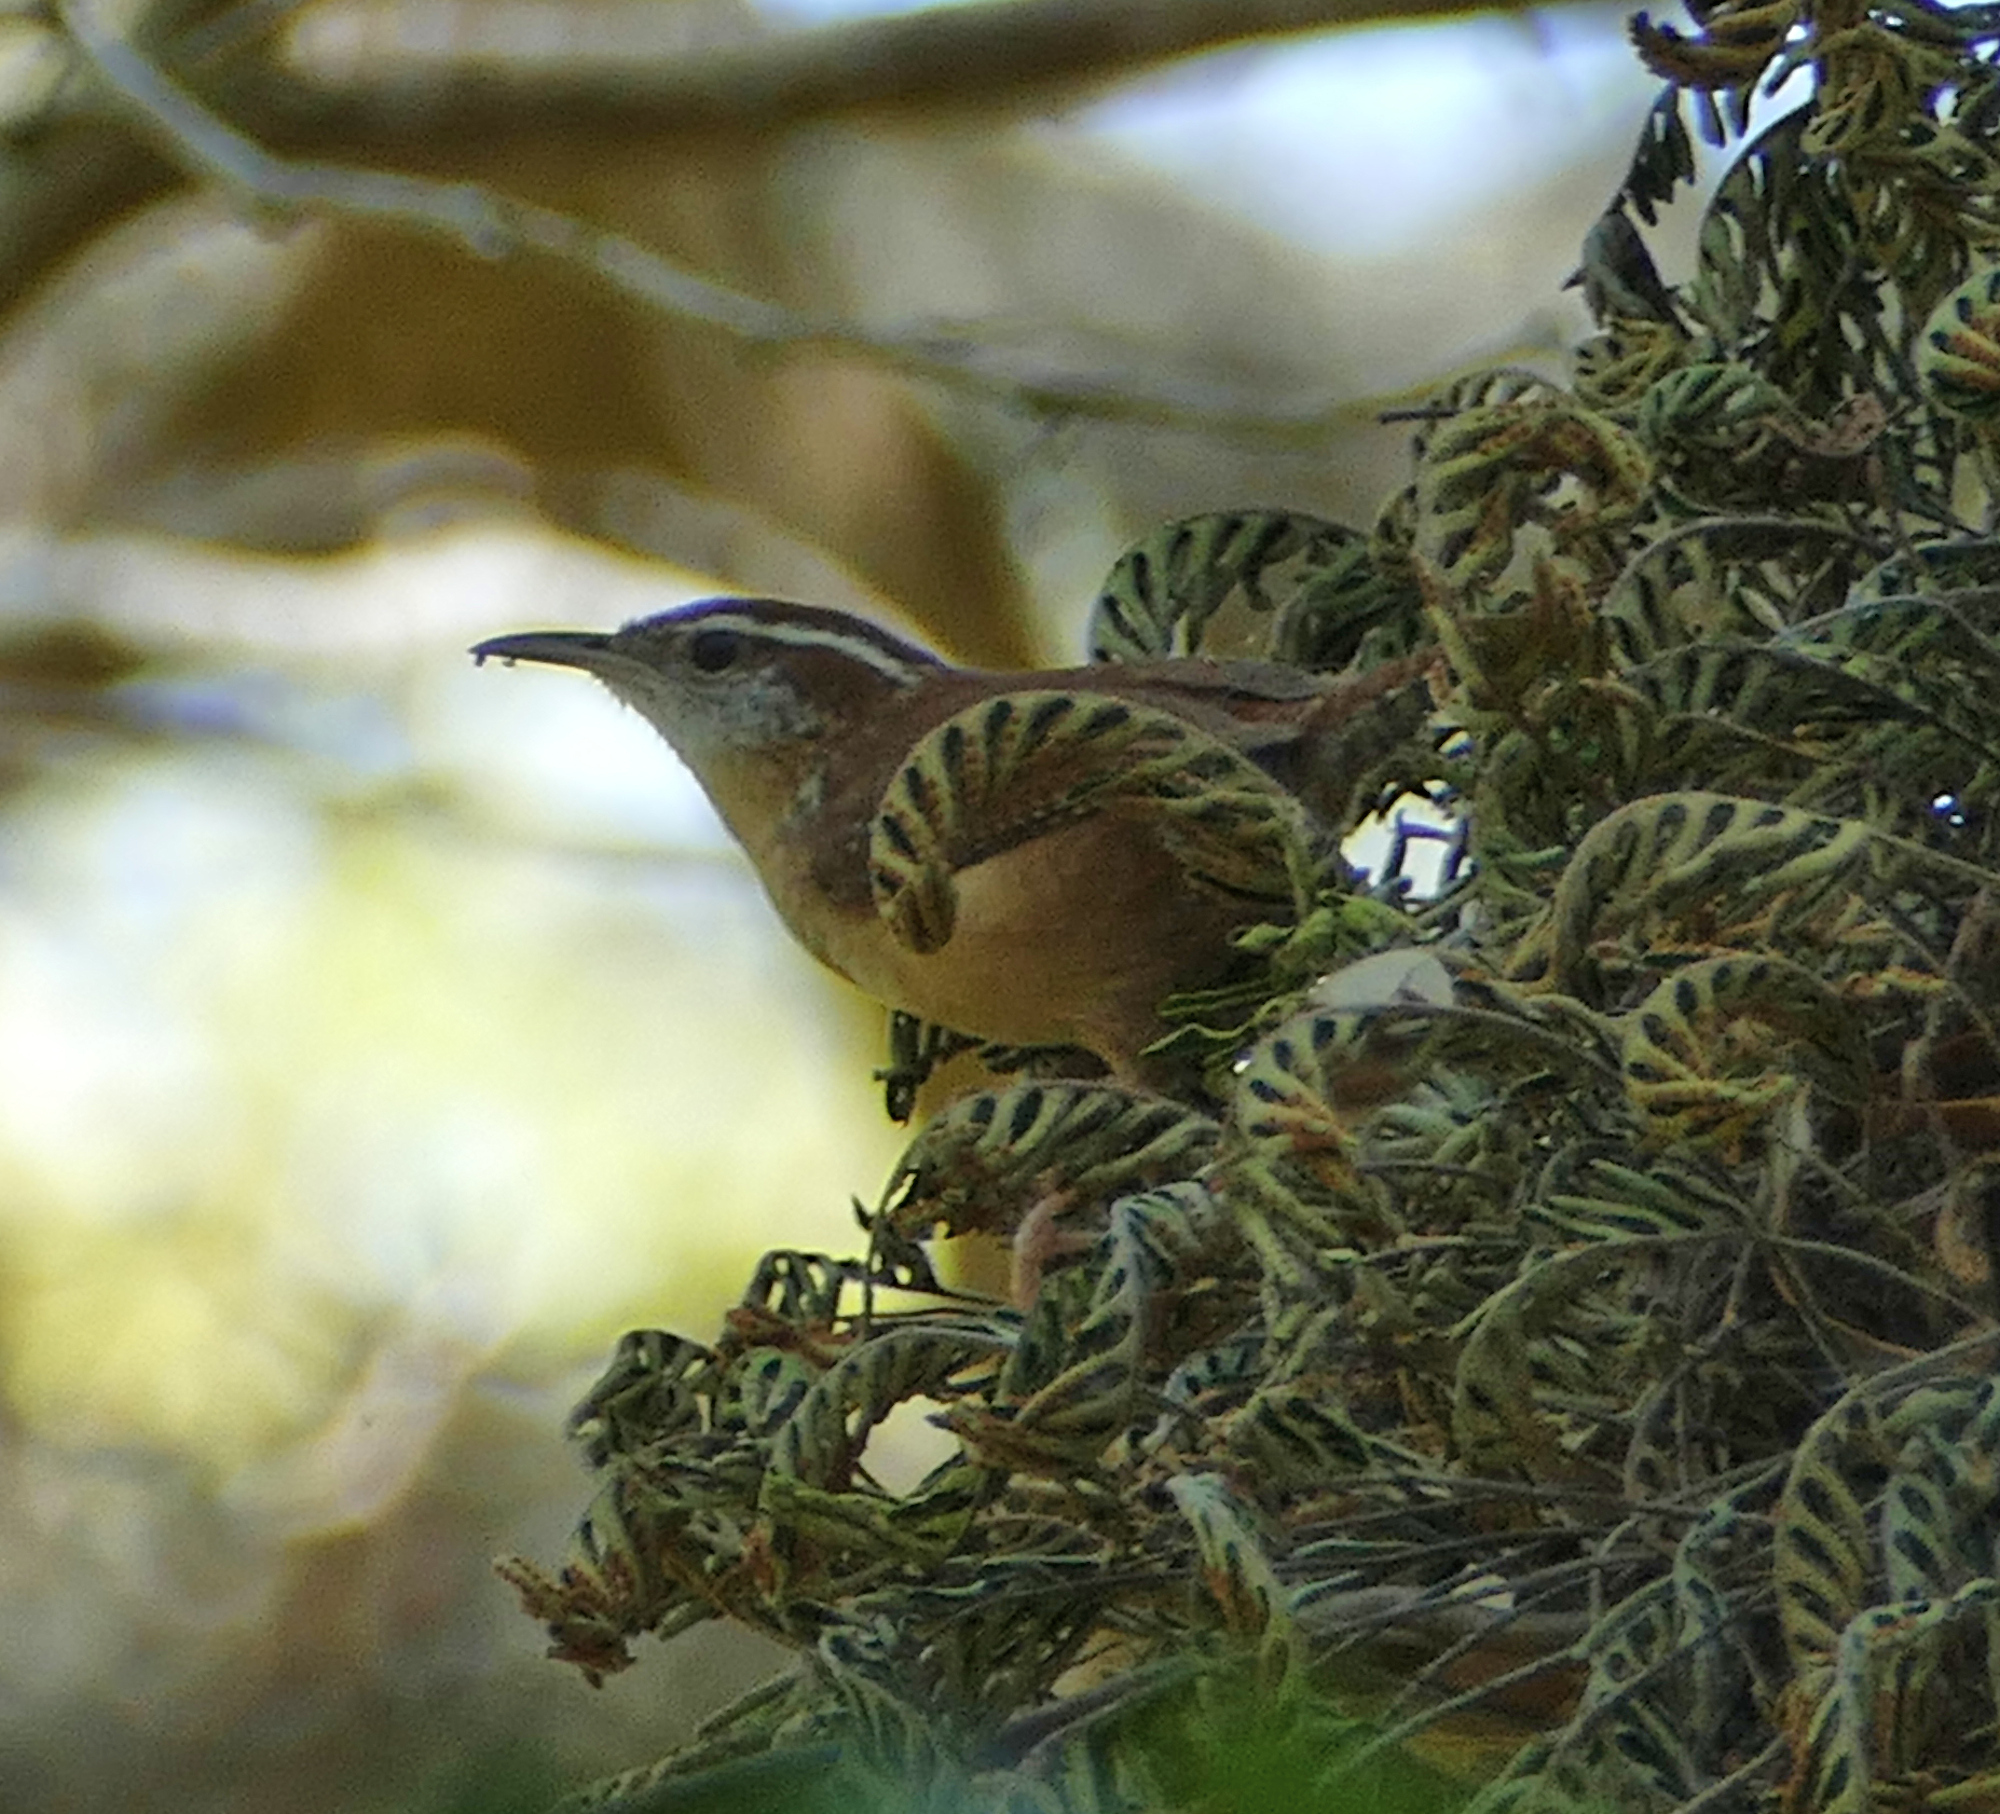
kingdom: Animalia
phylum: Chordata
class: Aves
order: Passeriformes
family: Troglodytidae
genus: Thryothorus
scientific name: Thryothorus ludovicianus
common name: Carolina wren
